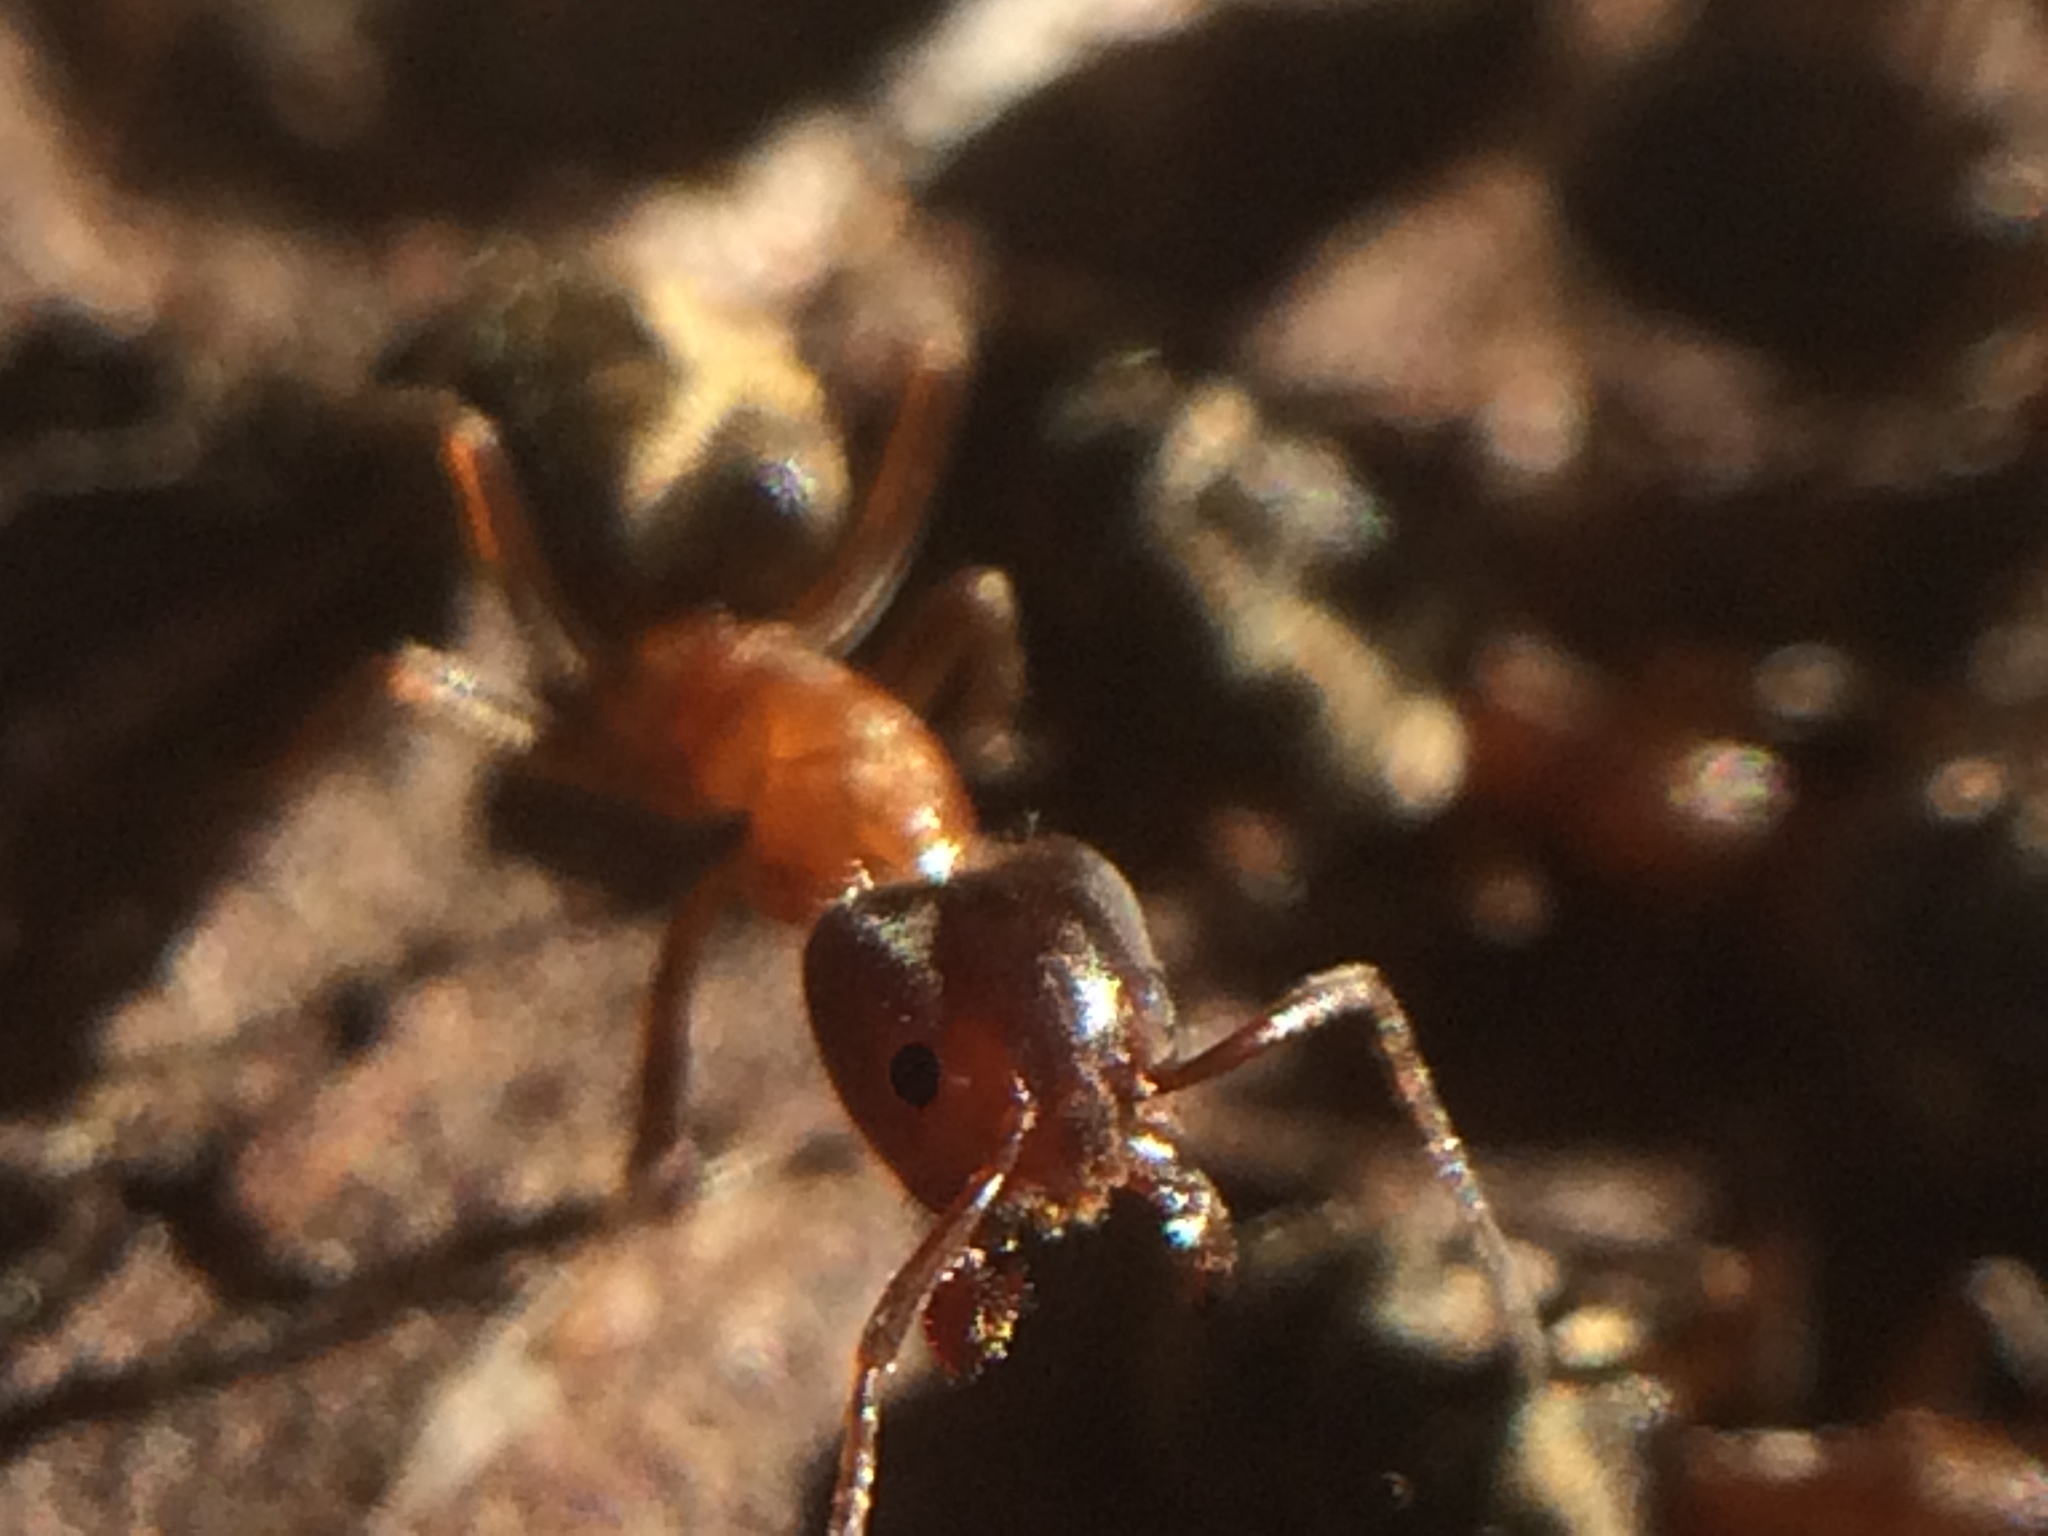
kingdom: Animalia
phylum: Arthropoda
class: Insecta
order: Hymenoptera
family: Formicidae
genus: Liometopum
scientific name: Liometopum occidentale
